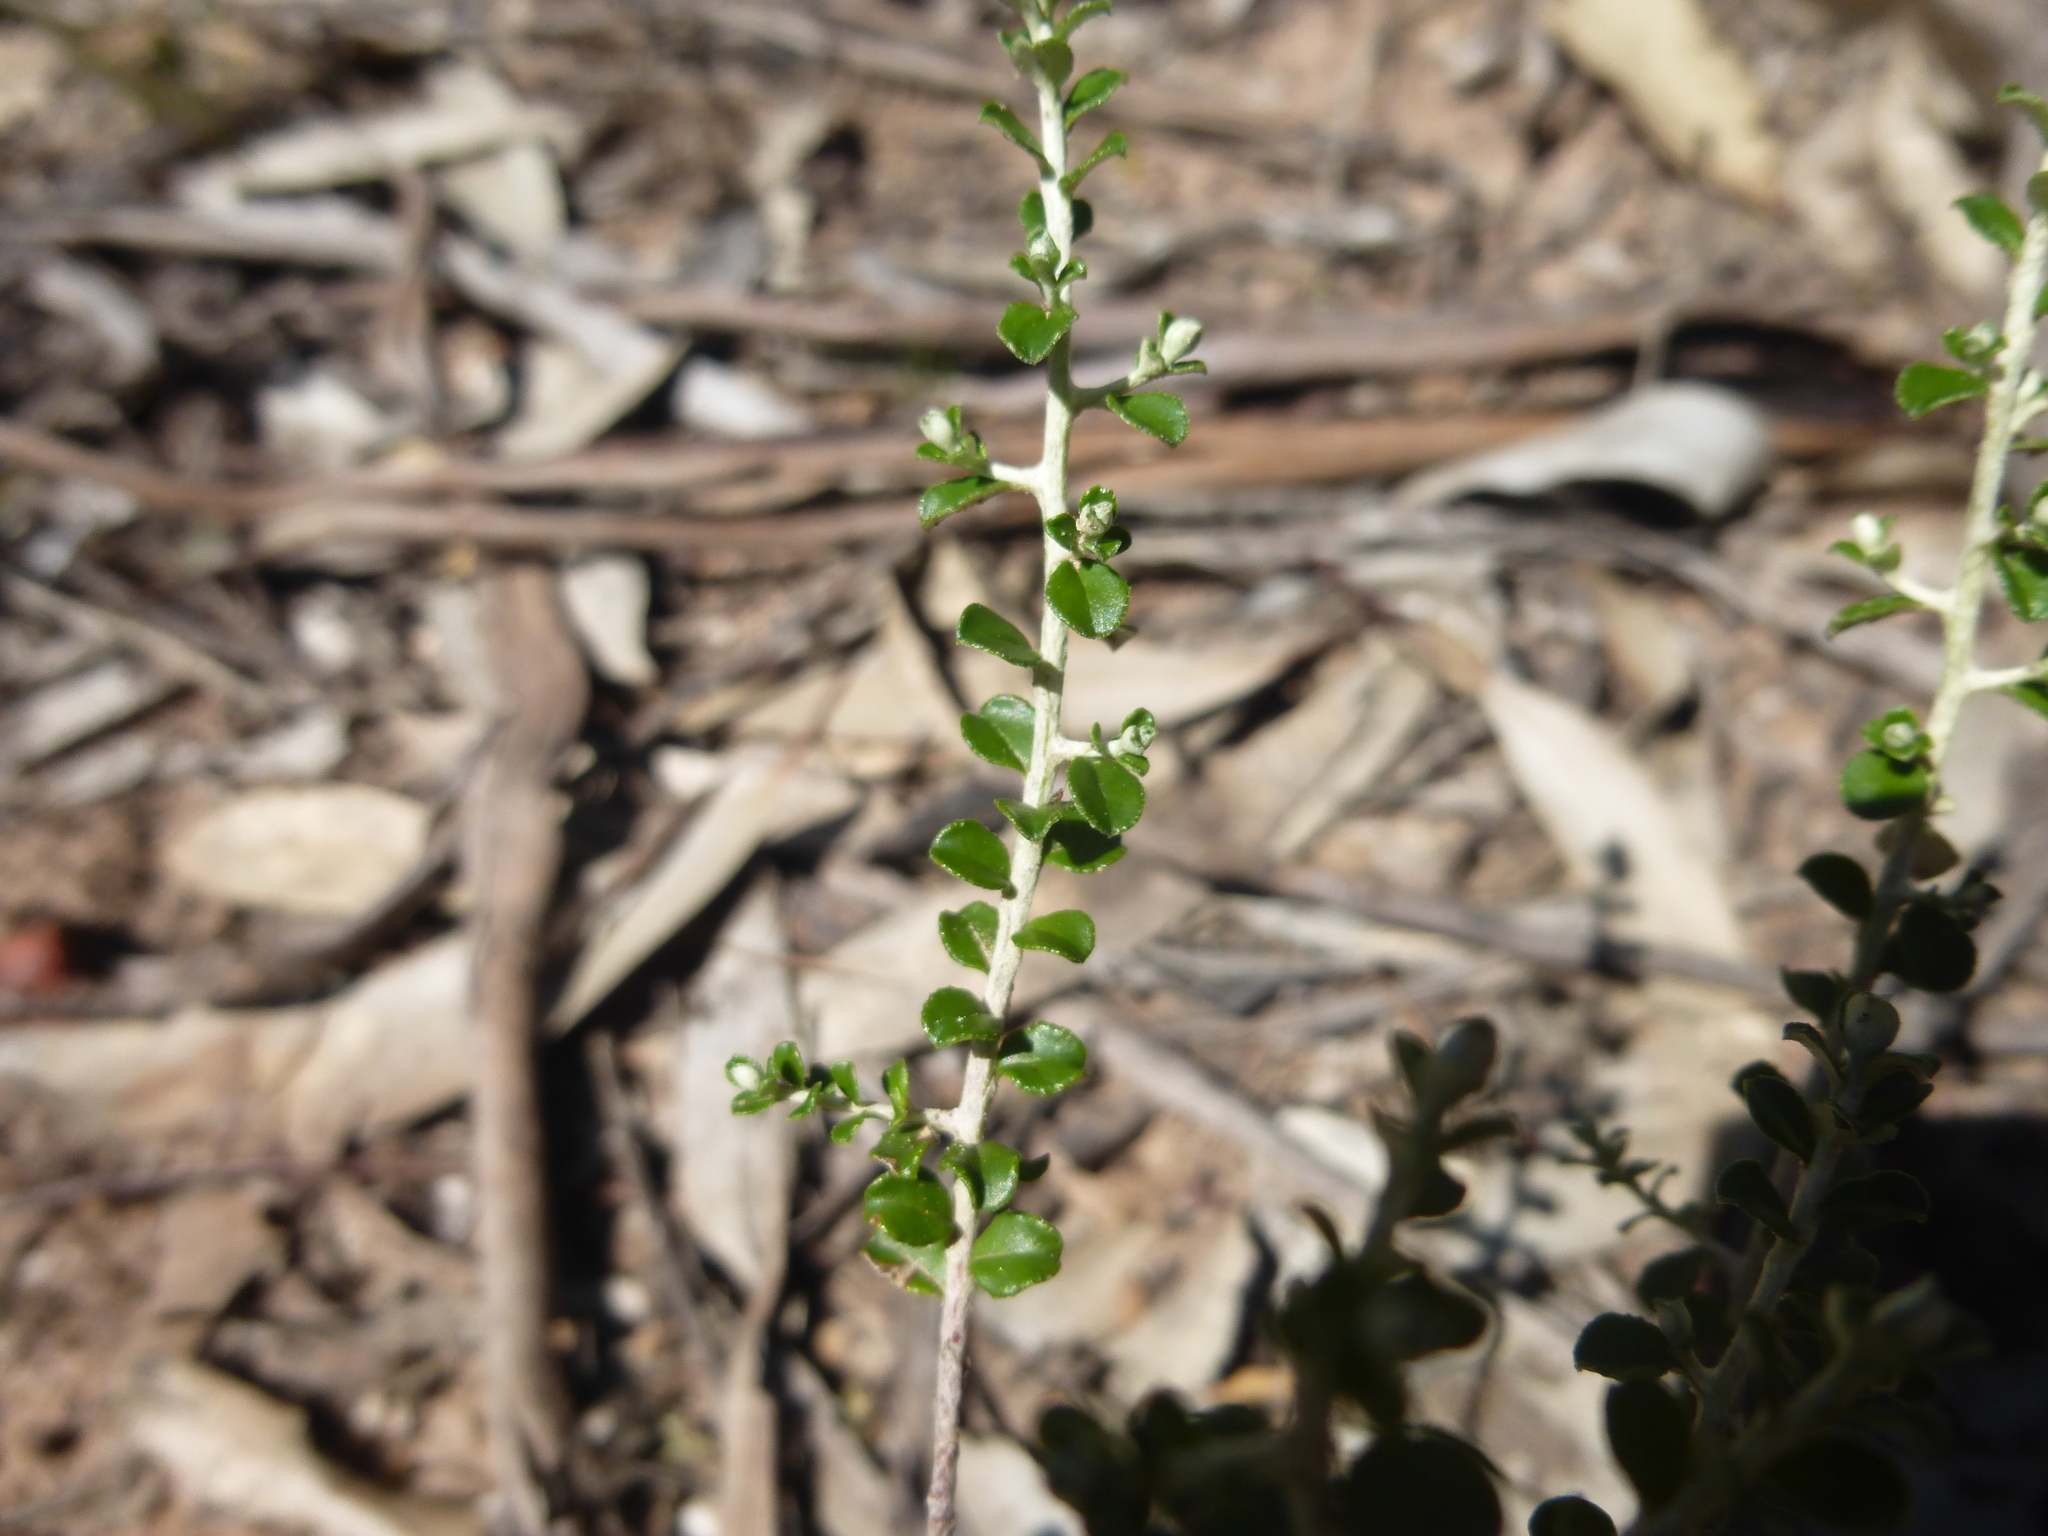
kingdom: Plantae
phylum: Tracheophyta
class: Magnoliopsida
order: Asterales
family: Asteraceae
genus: Ozothamnus
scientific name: Ozothamnus obcordatus
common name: Grey everlasting
